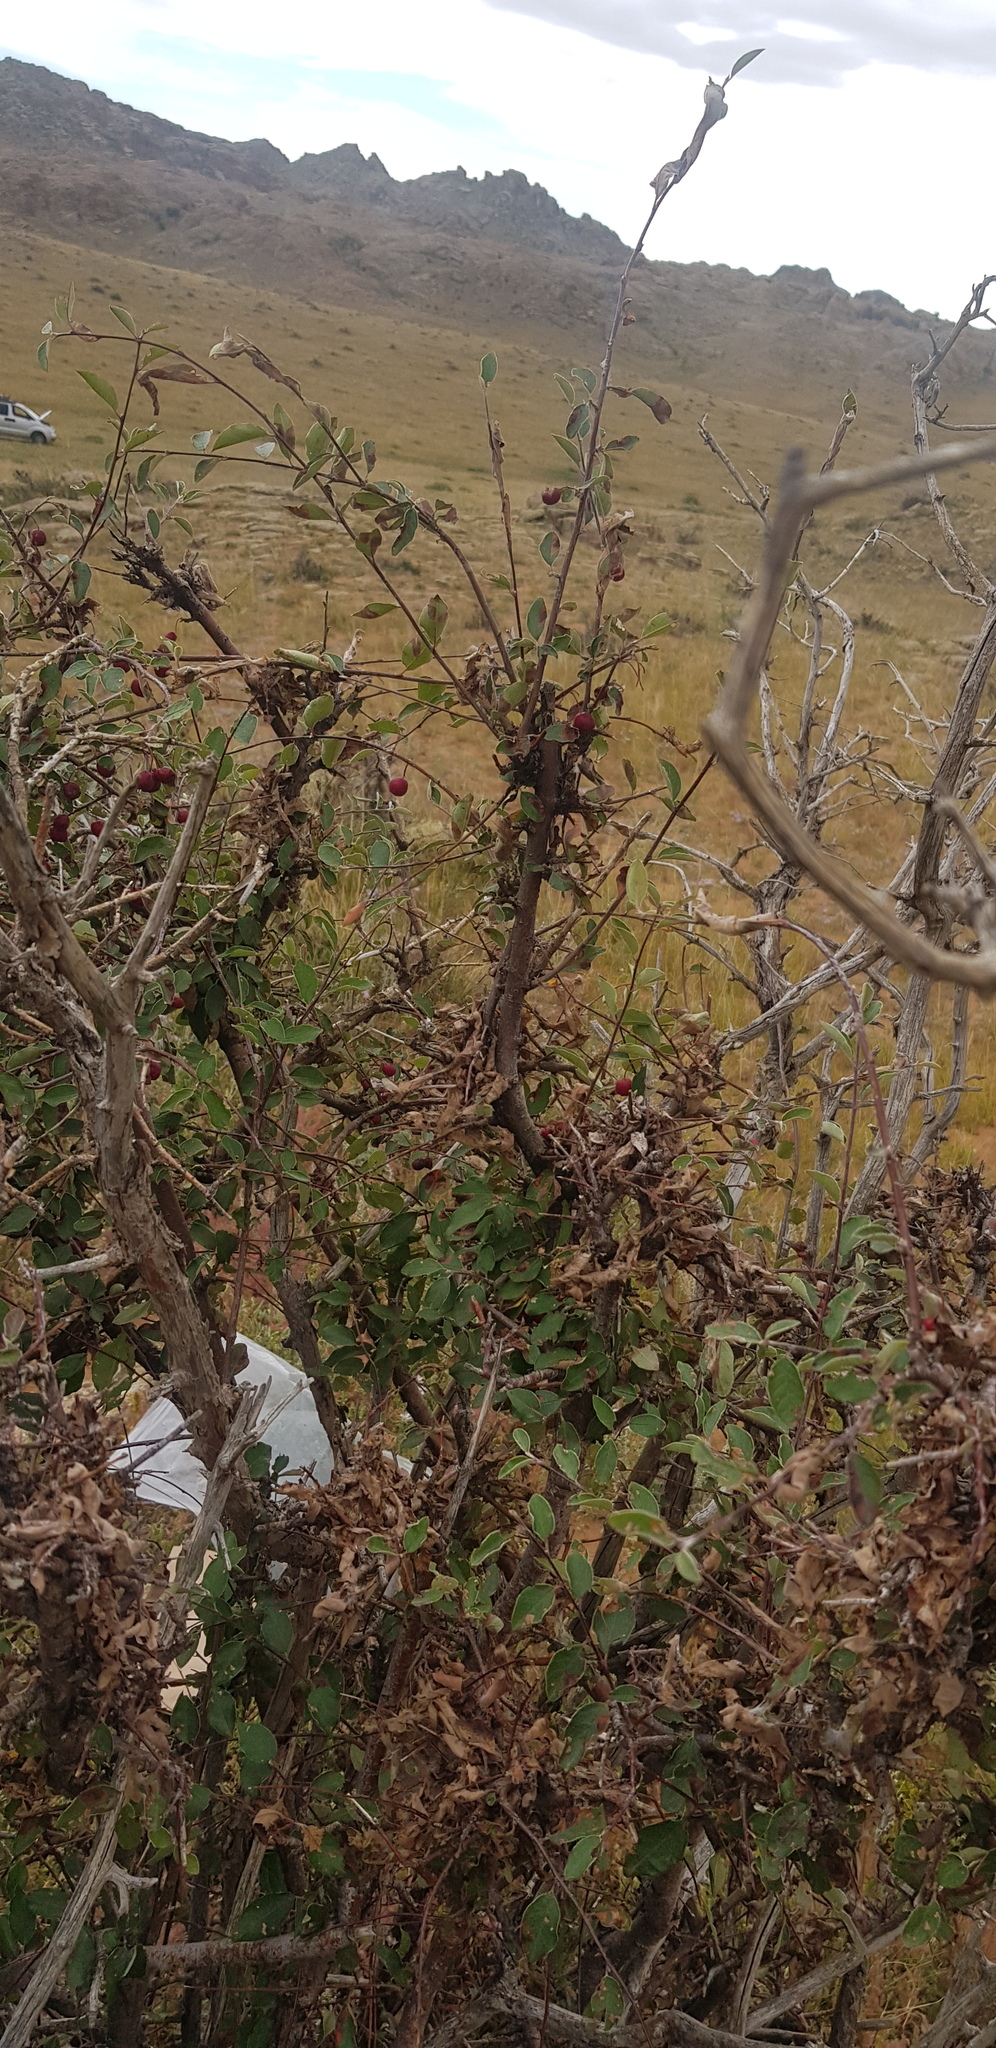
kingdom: Plantae
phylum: Tracheophyta
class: Magnoliopsida
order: Rosales
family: Rosaceae
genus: Cotoneaster
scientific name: Cotoneaster melanocarpus
